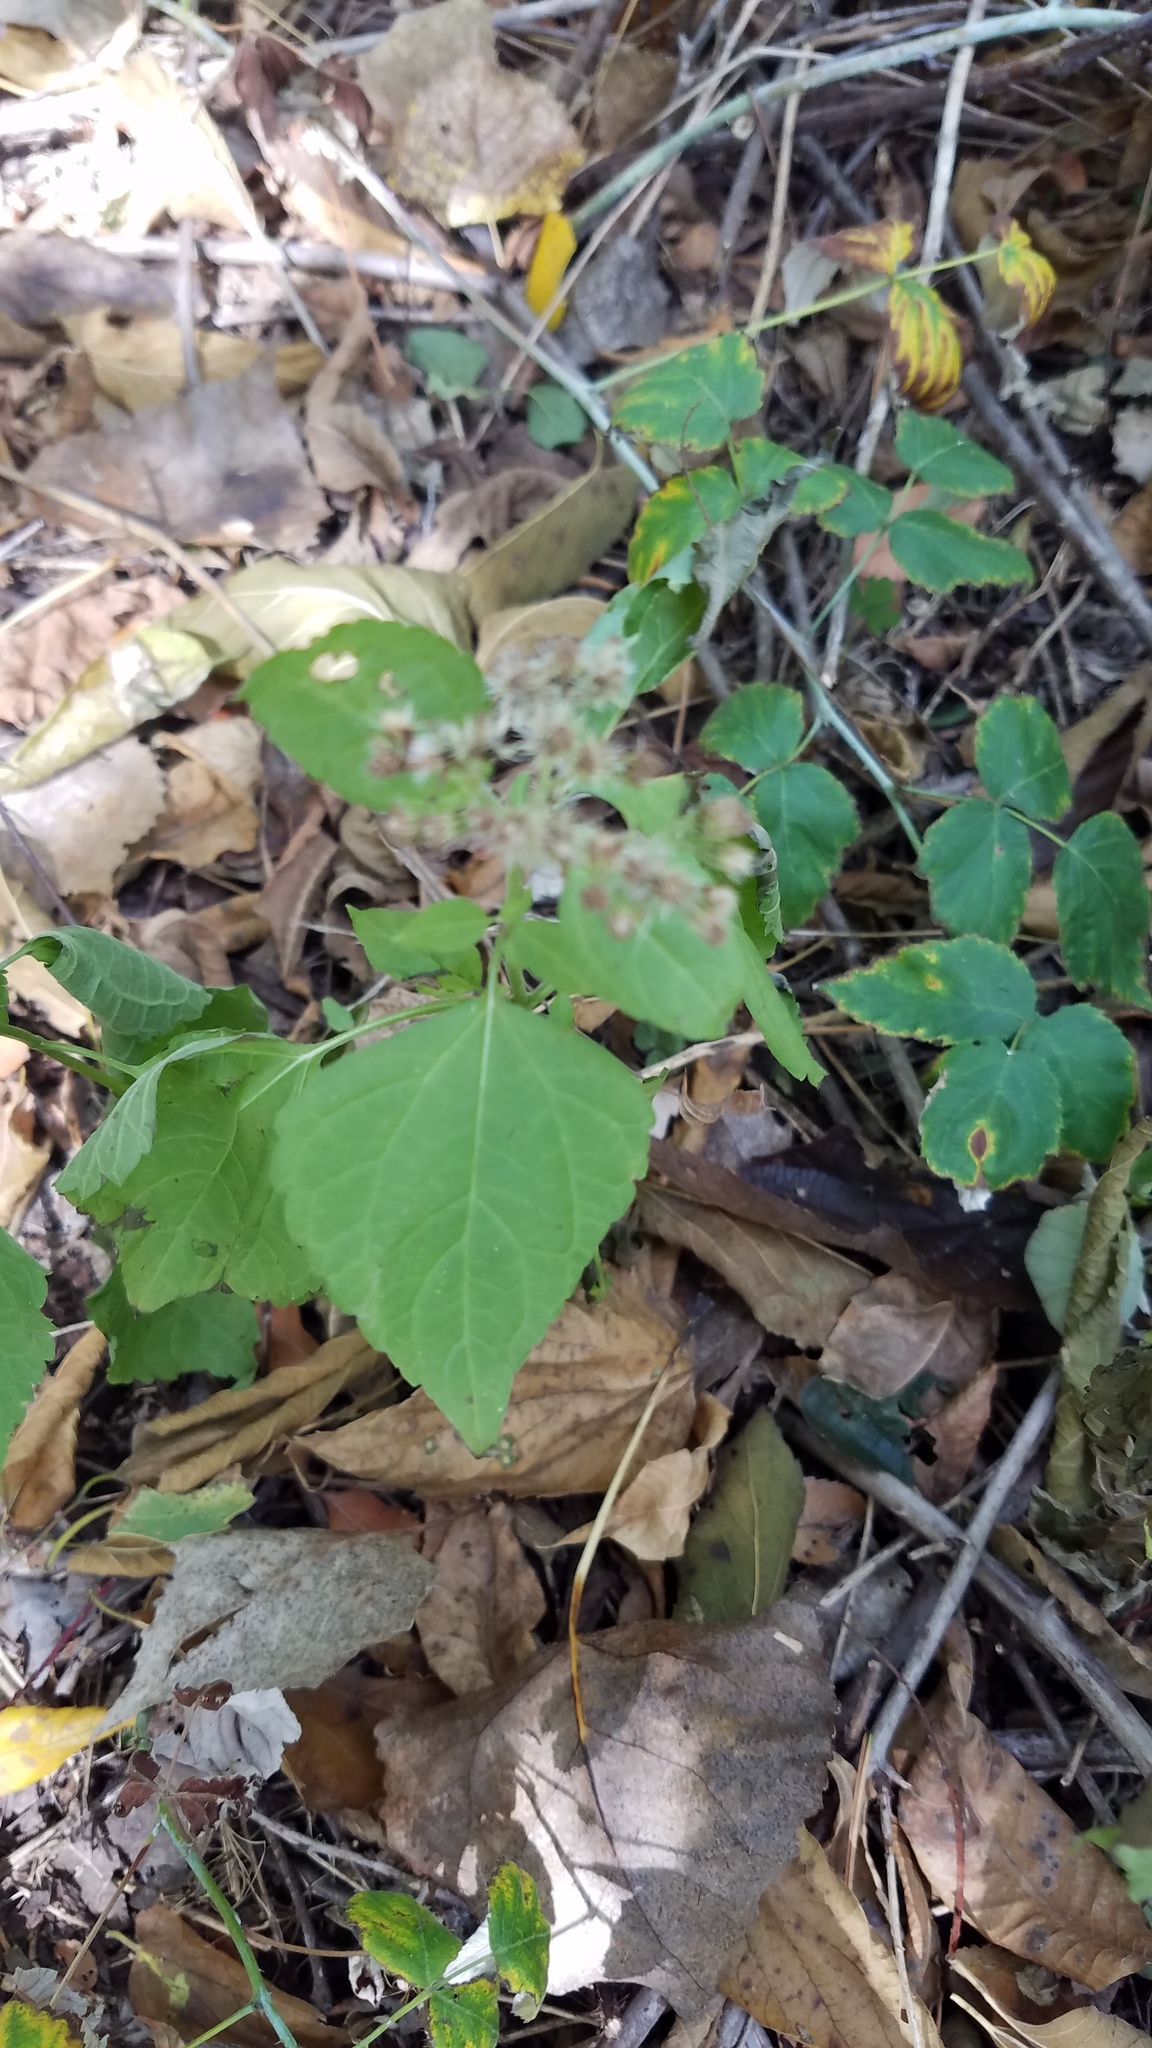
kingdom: Plantae
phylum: Tracheophyta
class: Magnoliopsida
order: Asterales
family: Asteraceae
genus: Ageratina
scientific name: Ageratina altissima
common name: White snakeroot
